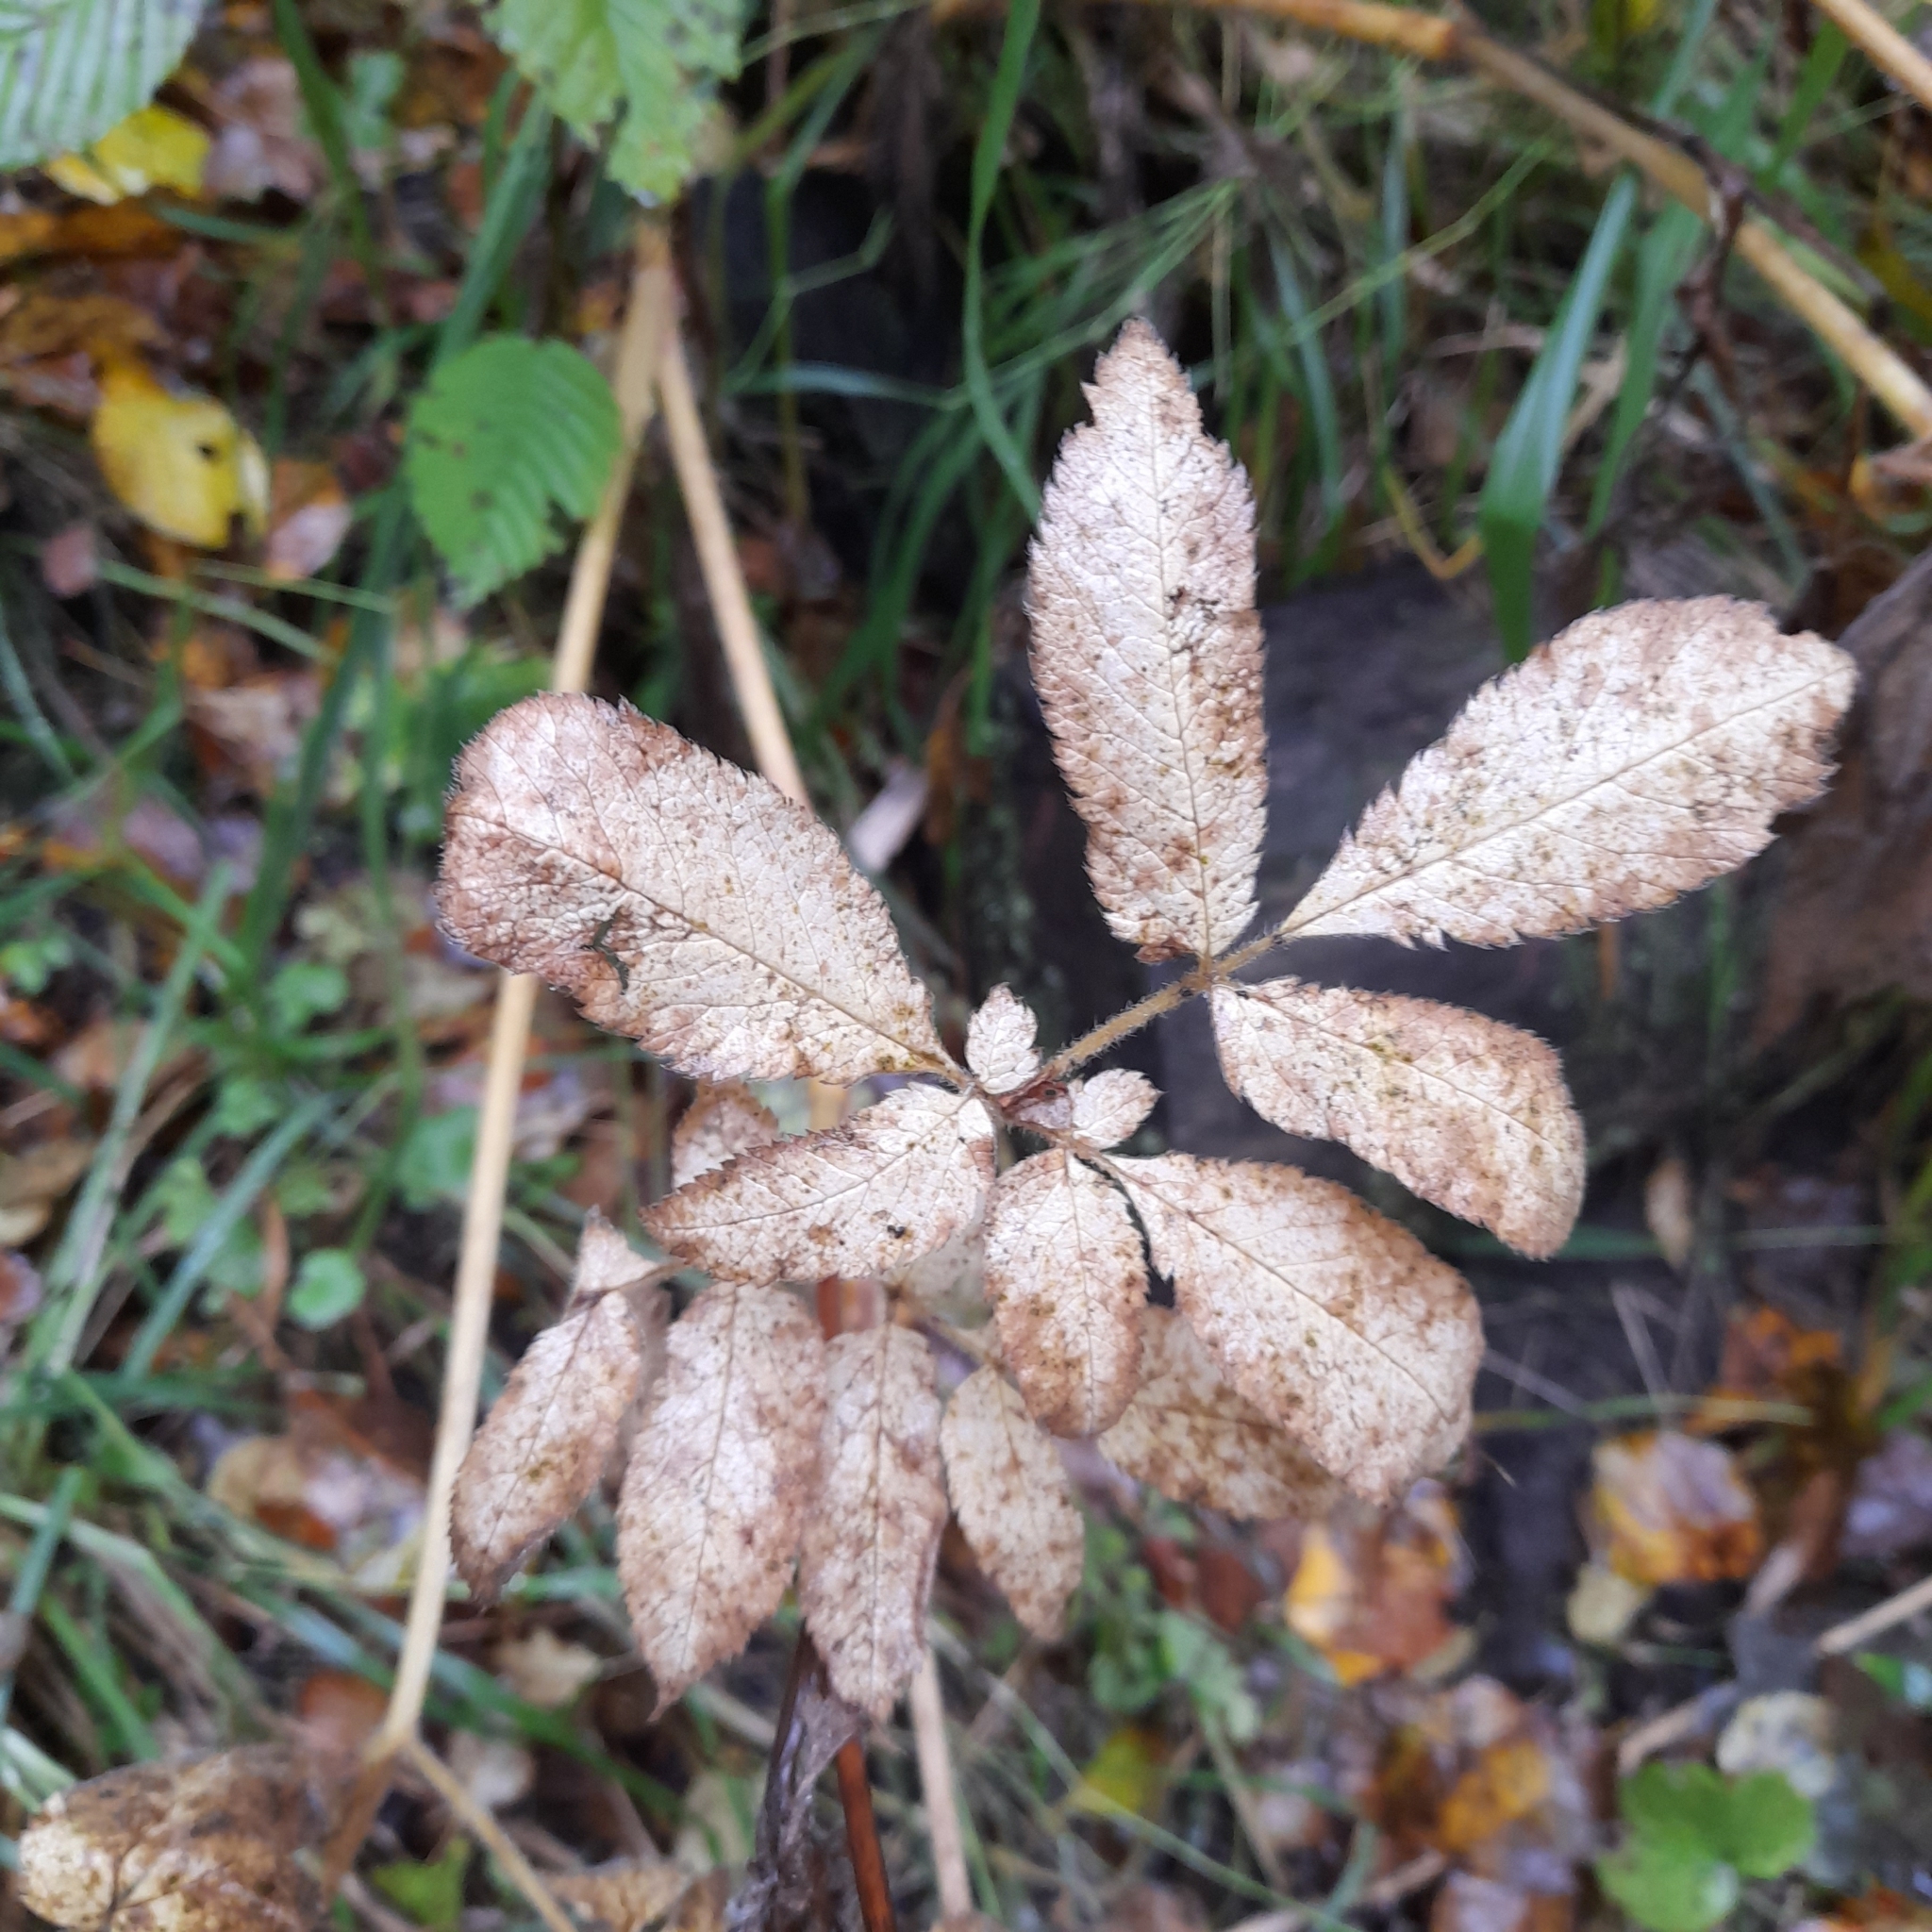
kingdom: Plantae
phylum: Tracheophyta
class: Magnoliopsida
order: Apiales
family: Apiaceae
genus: Chaerophyllum
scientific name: Chaerophyllum aromaticum
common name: Broadleaf chervil
